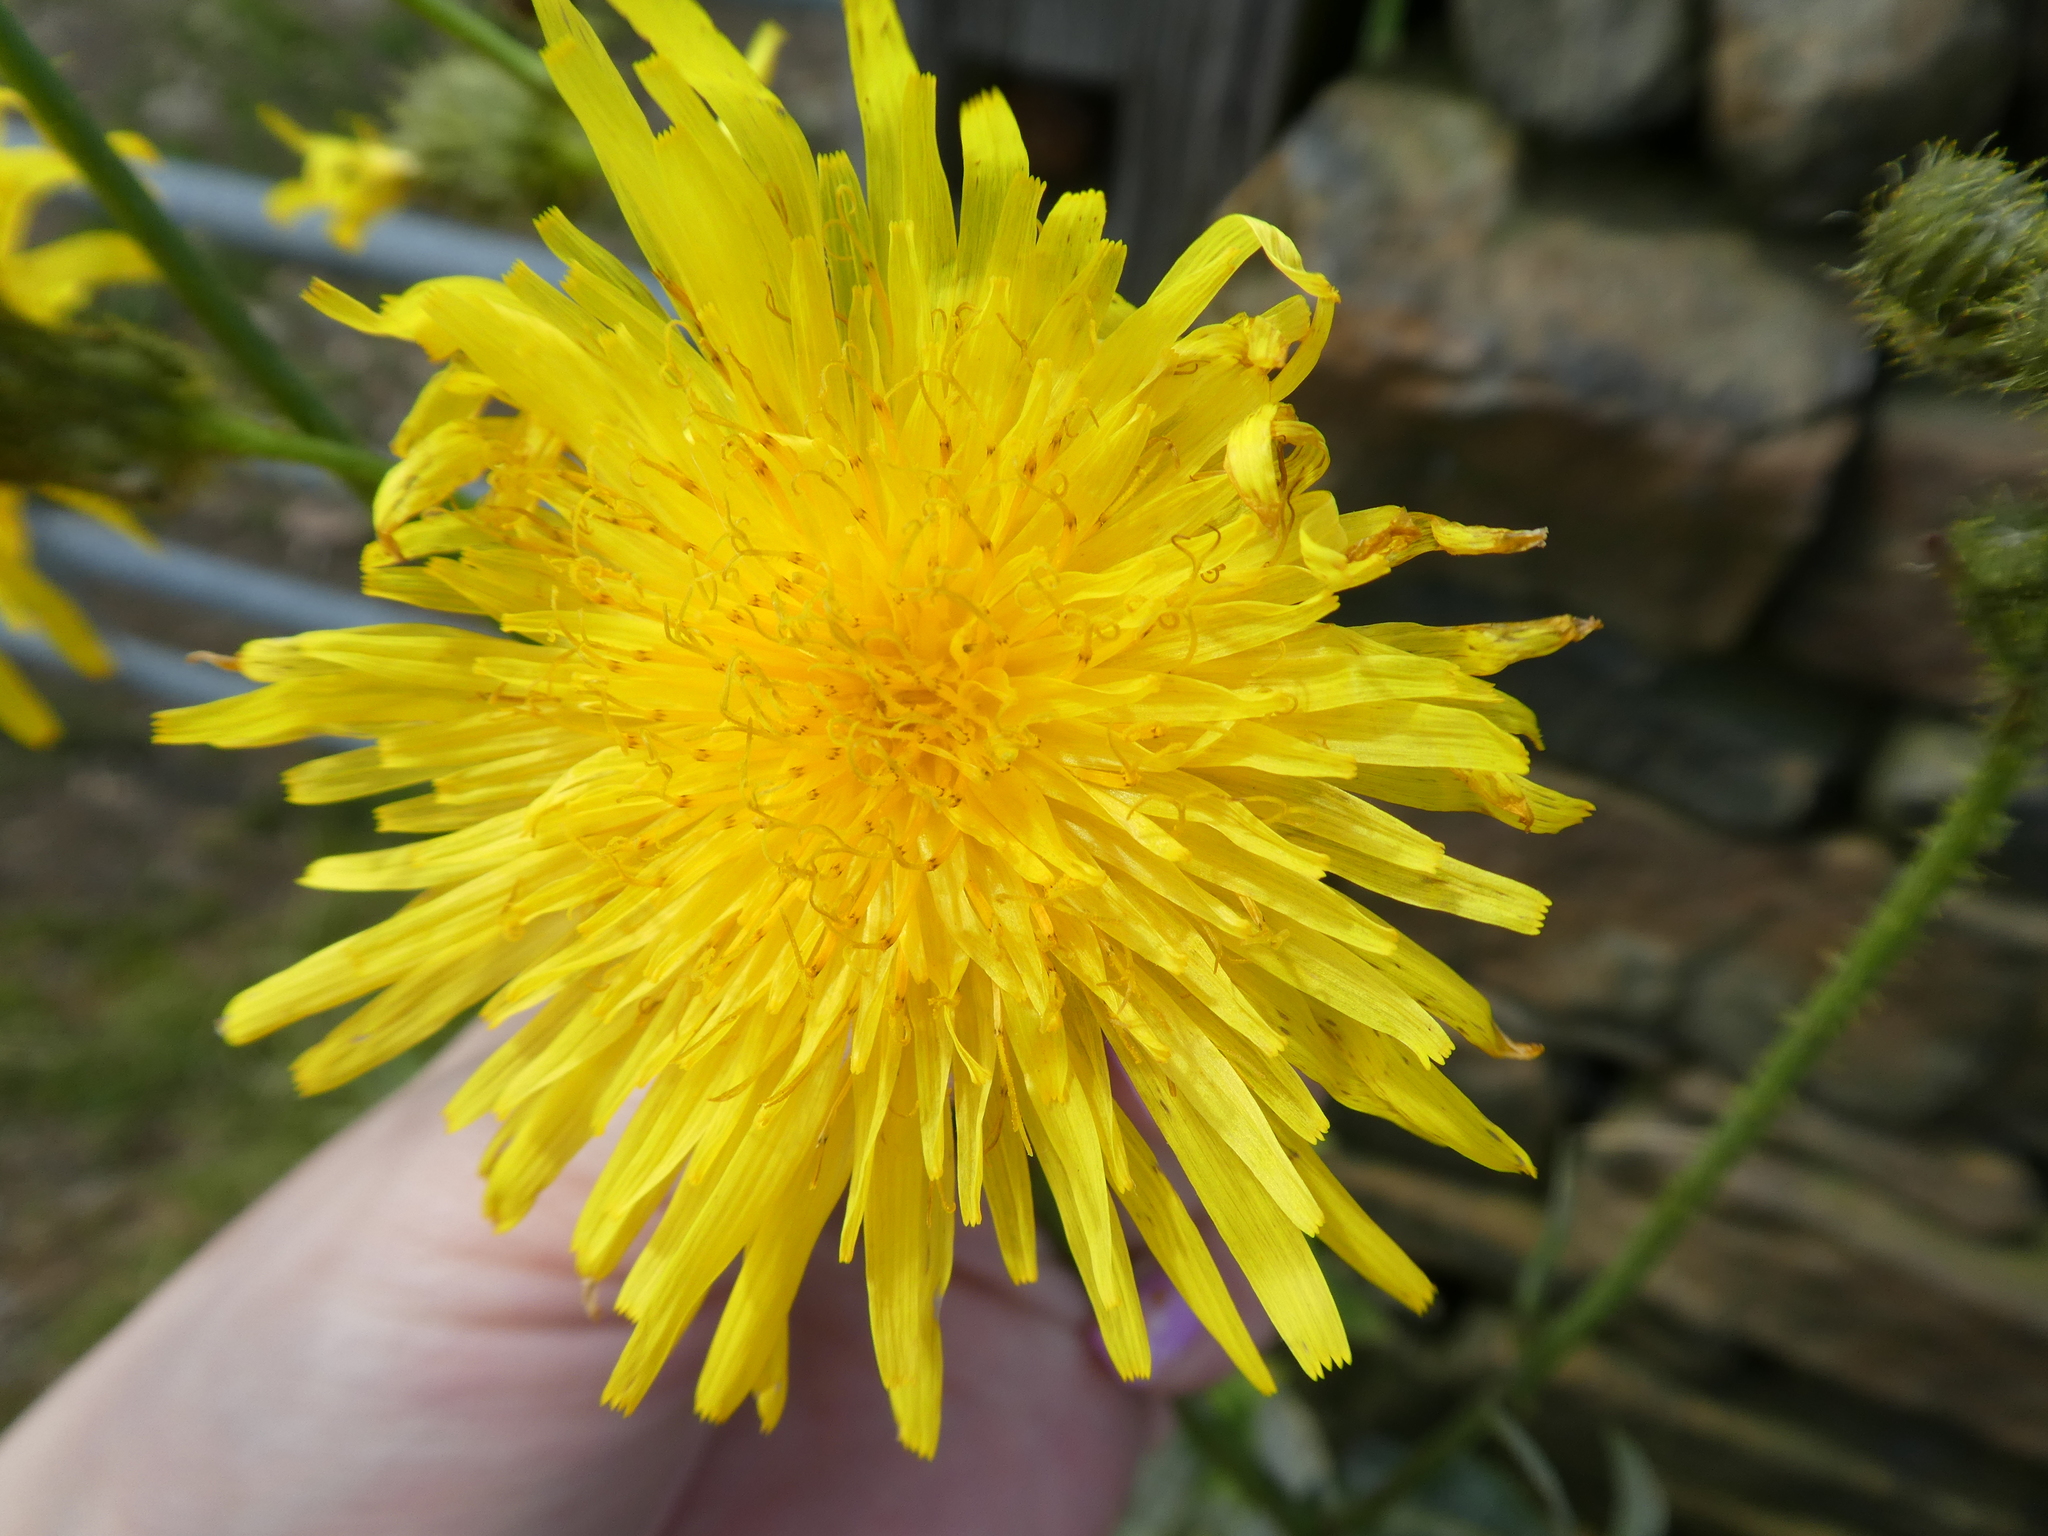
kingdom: Plantae
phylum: Tracheophyta
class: Magnoliopsida
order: Asterales
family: Asteraceae
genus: Sonchus
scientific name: Sonchus arvensis
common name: Perennial sow-thistle
